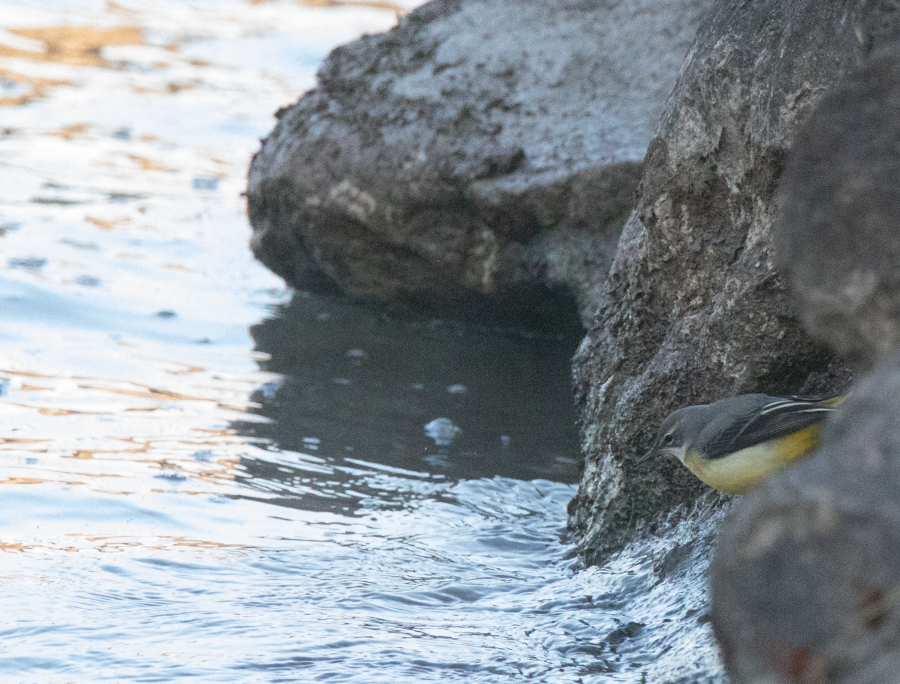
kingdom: Animalia
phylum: Chordata
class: Aves
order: Passeriformes
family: Motacillidae
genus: Motacilla
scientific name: Motacilla cinerea
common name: Grey wagtail
